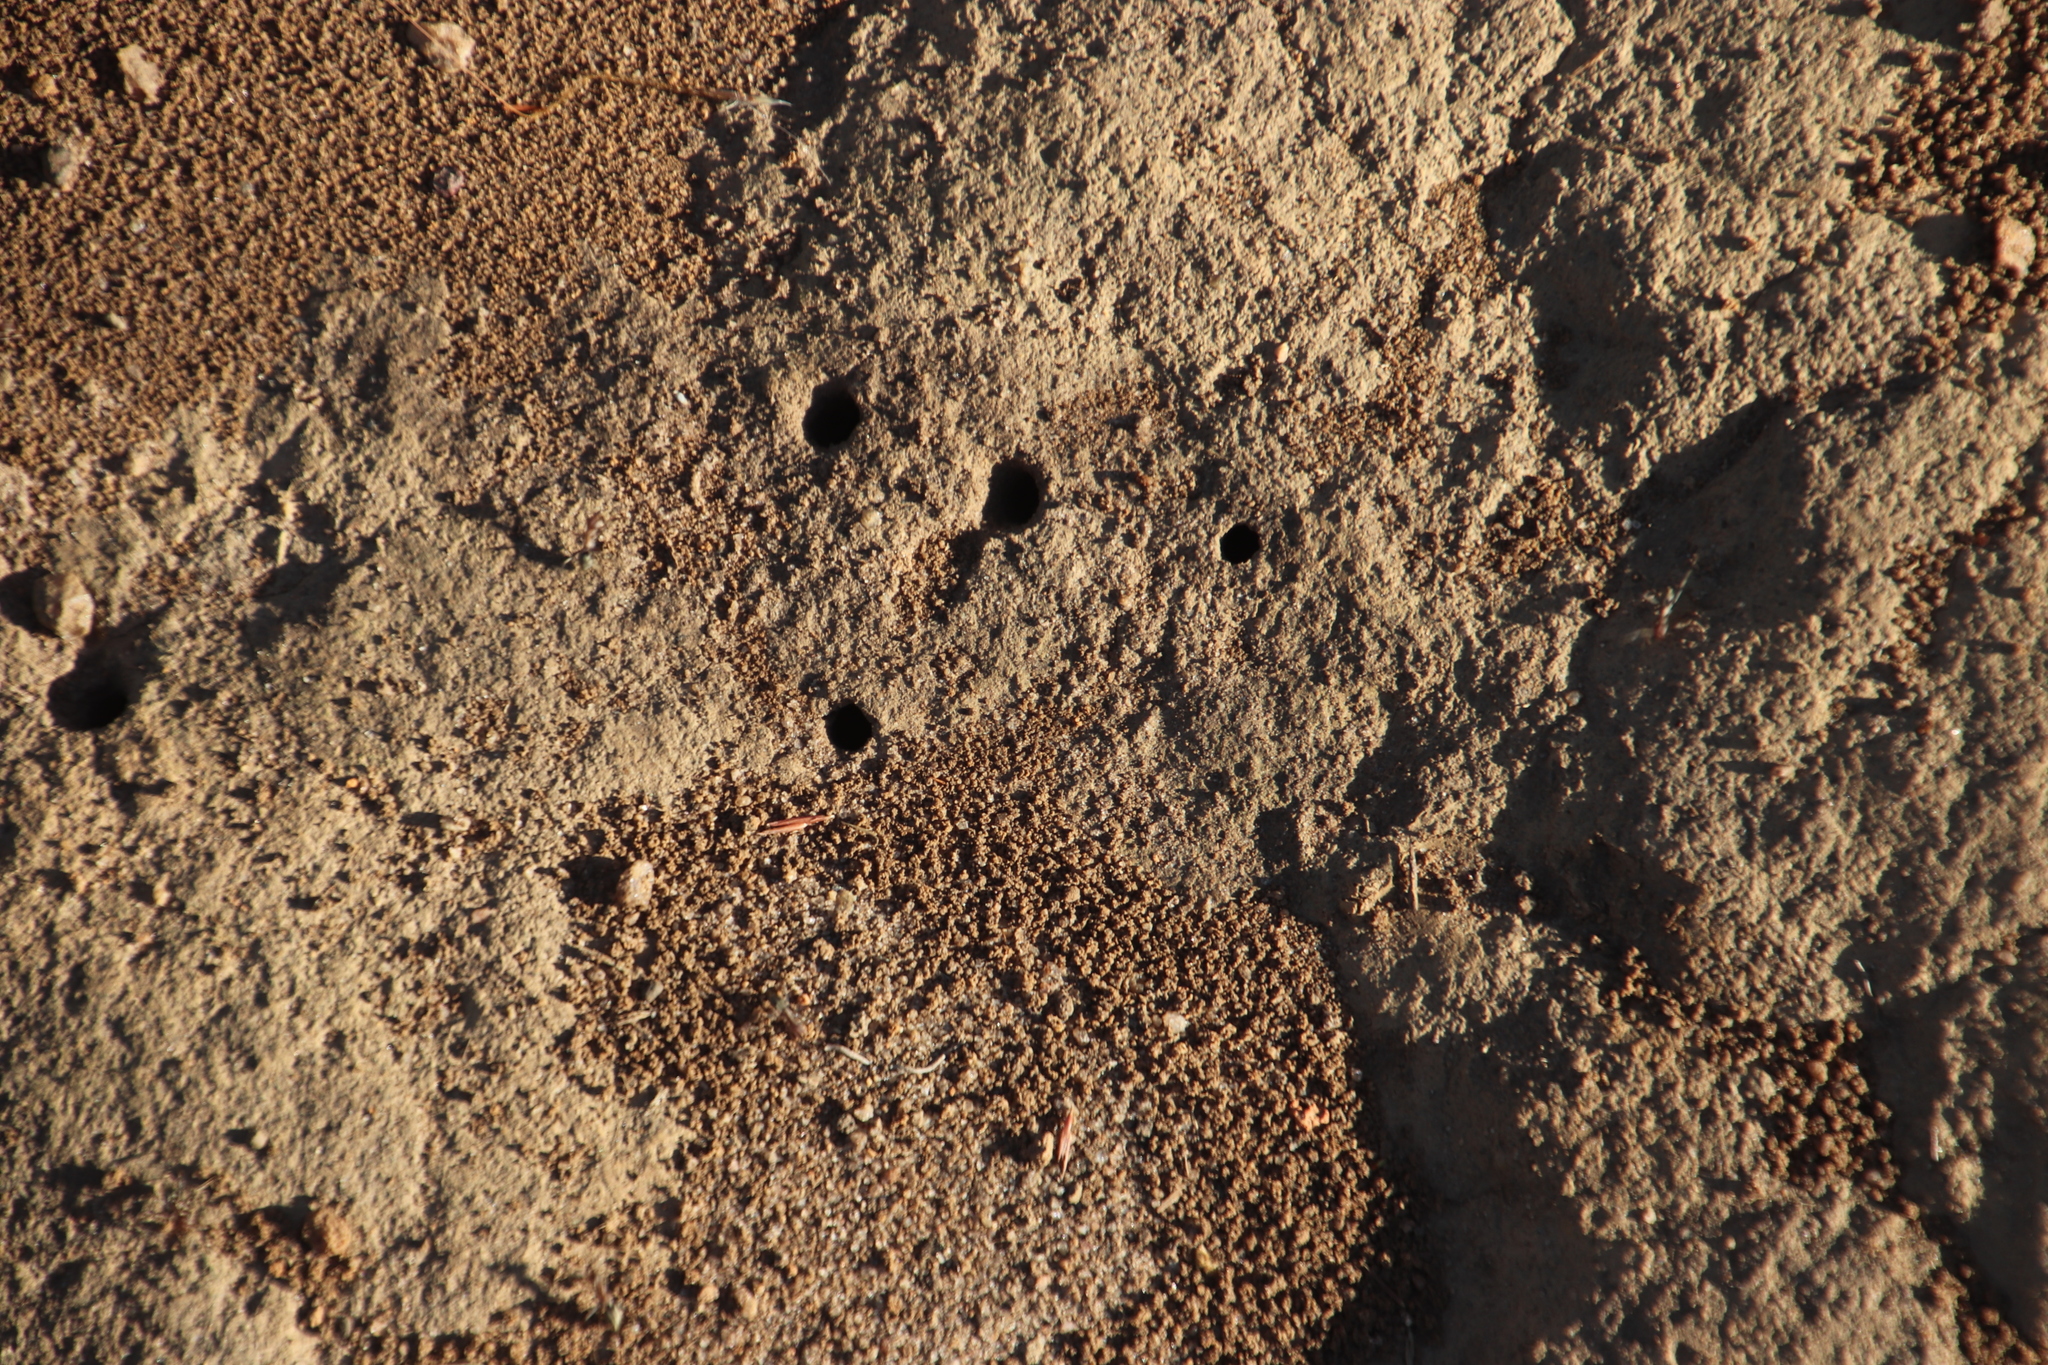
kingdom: Animalia
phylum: Arthropoda
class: Insecta
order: Hymenoptera
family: Formicidae
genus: Anoplolepis
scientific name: Anoplolepis custodiens
